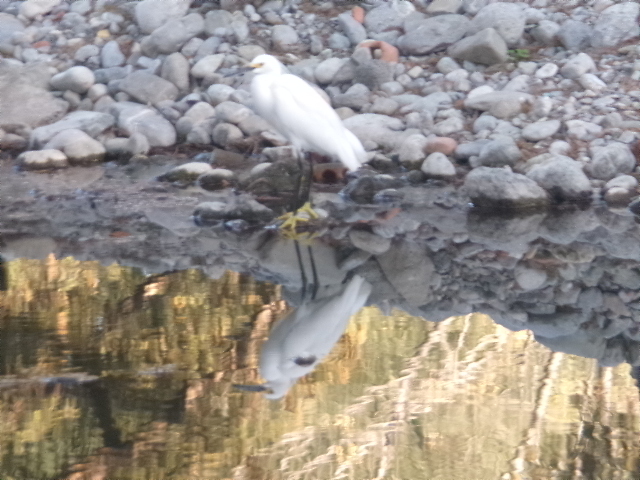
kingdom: Animalia
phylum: Chordata
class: Aves
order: Pelecaniformes
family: Ardeidae
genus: Egretta
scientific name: Egretta thula
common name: Snowy egret
